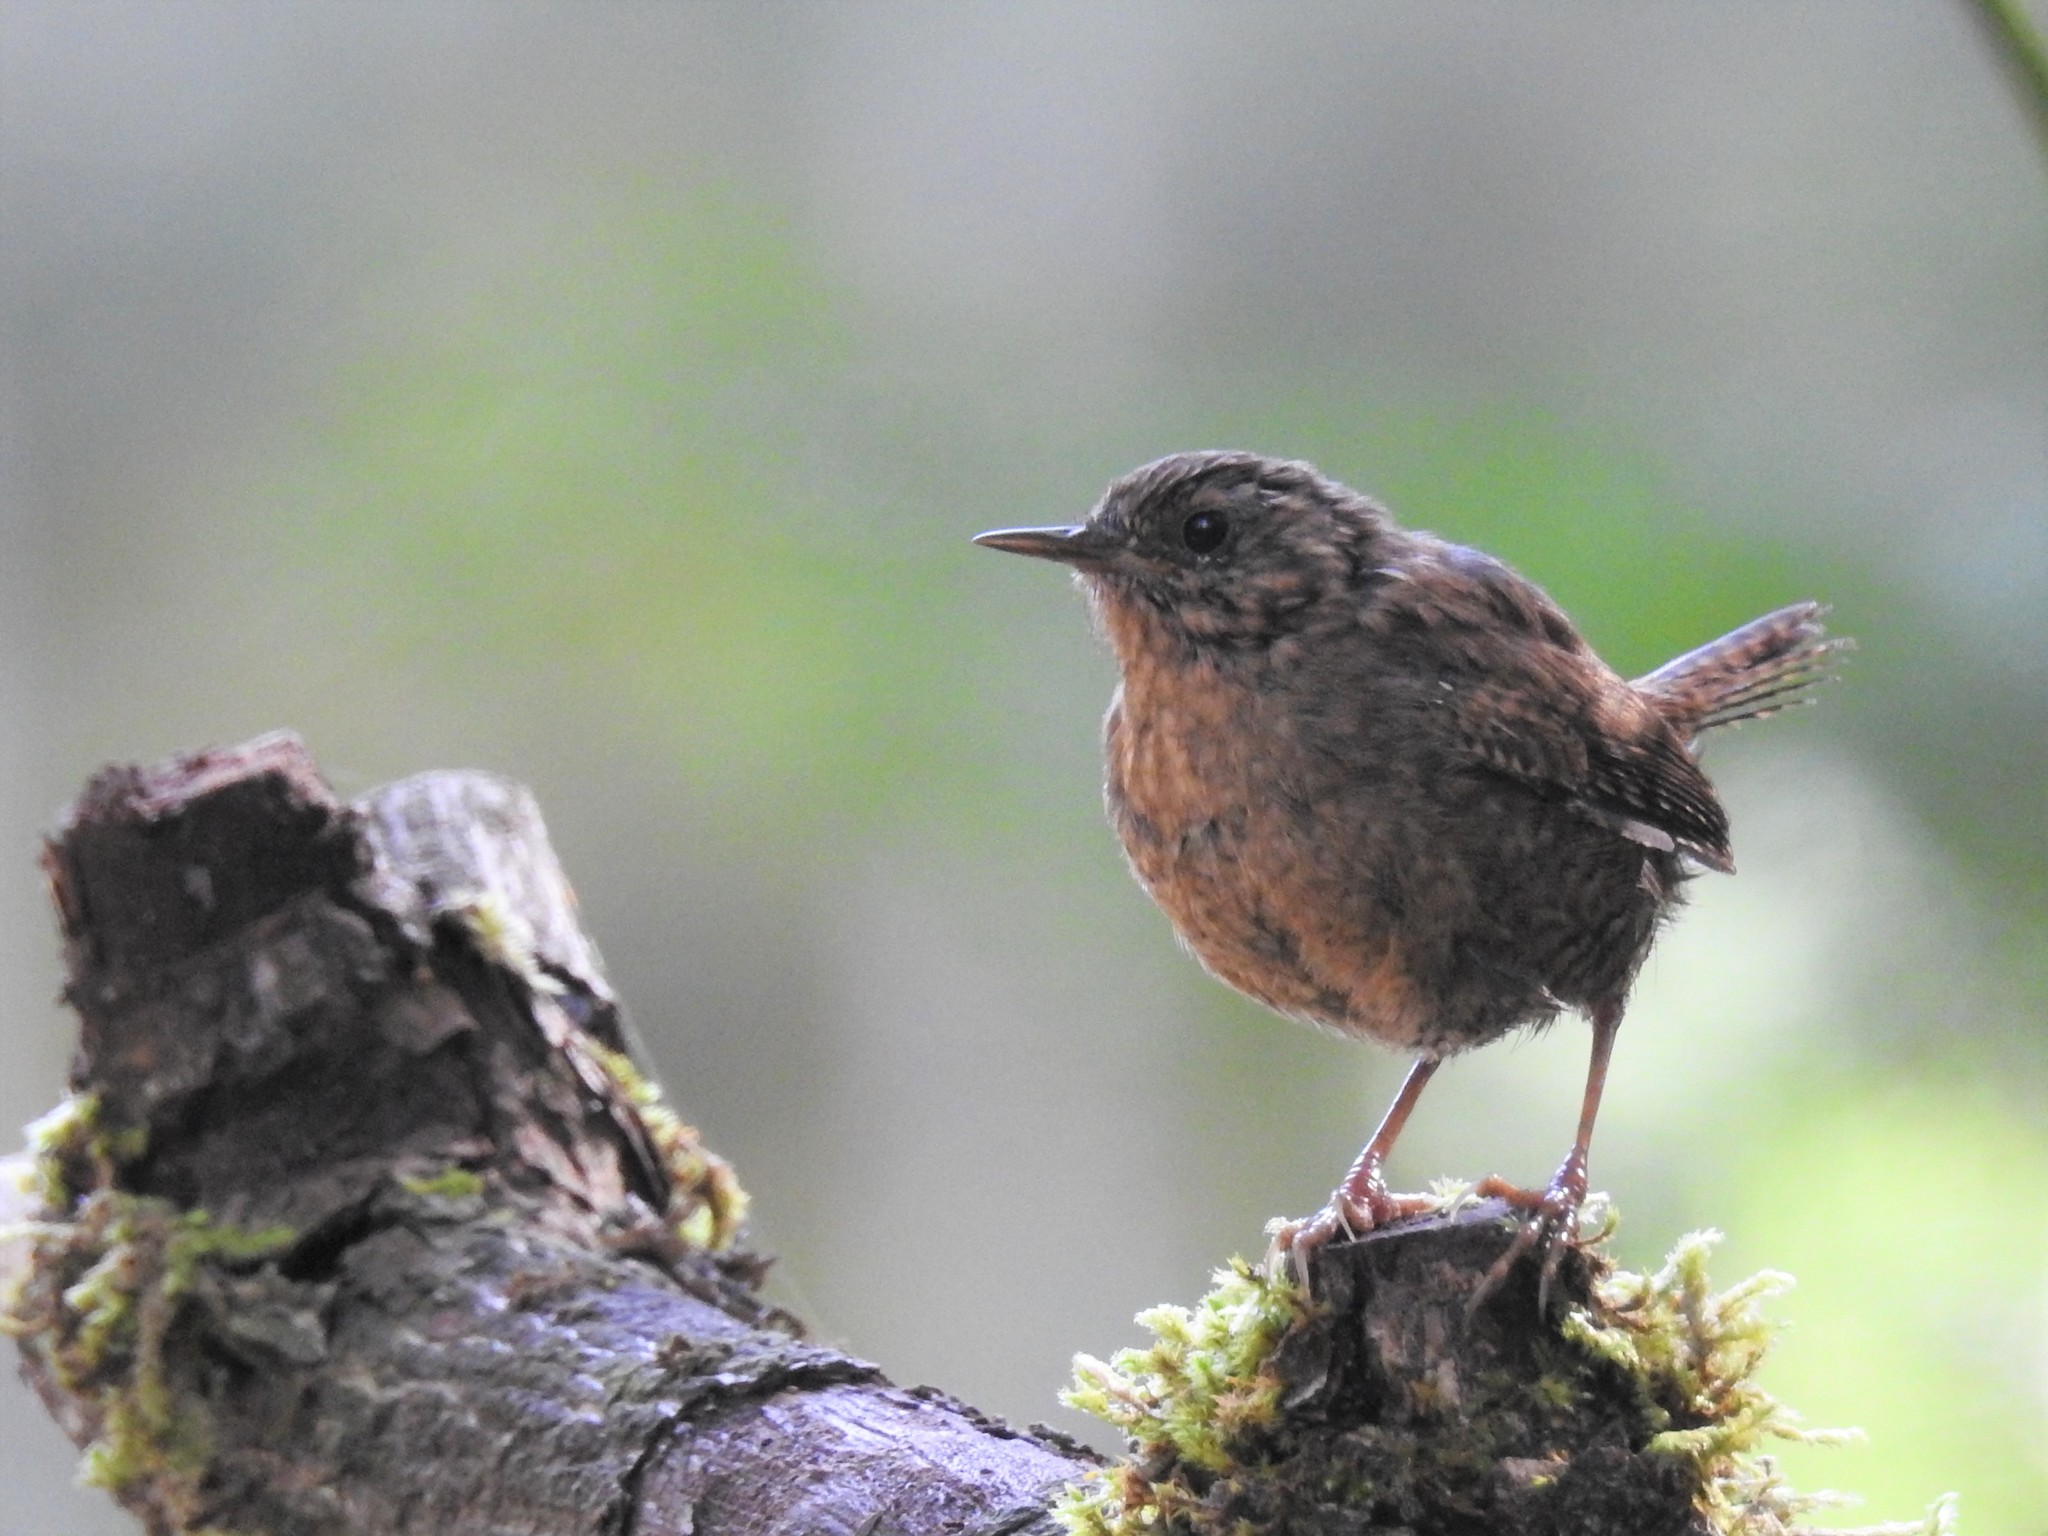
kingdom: Animalia
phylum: Chordata
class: Aves
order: Passeriformes
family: Troglodytidae
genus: Troglodytes
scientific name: Troglodytes pacificus
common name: Pacific wren
